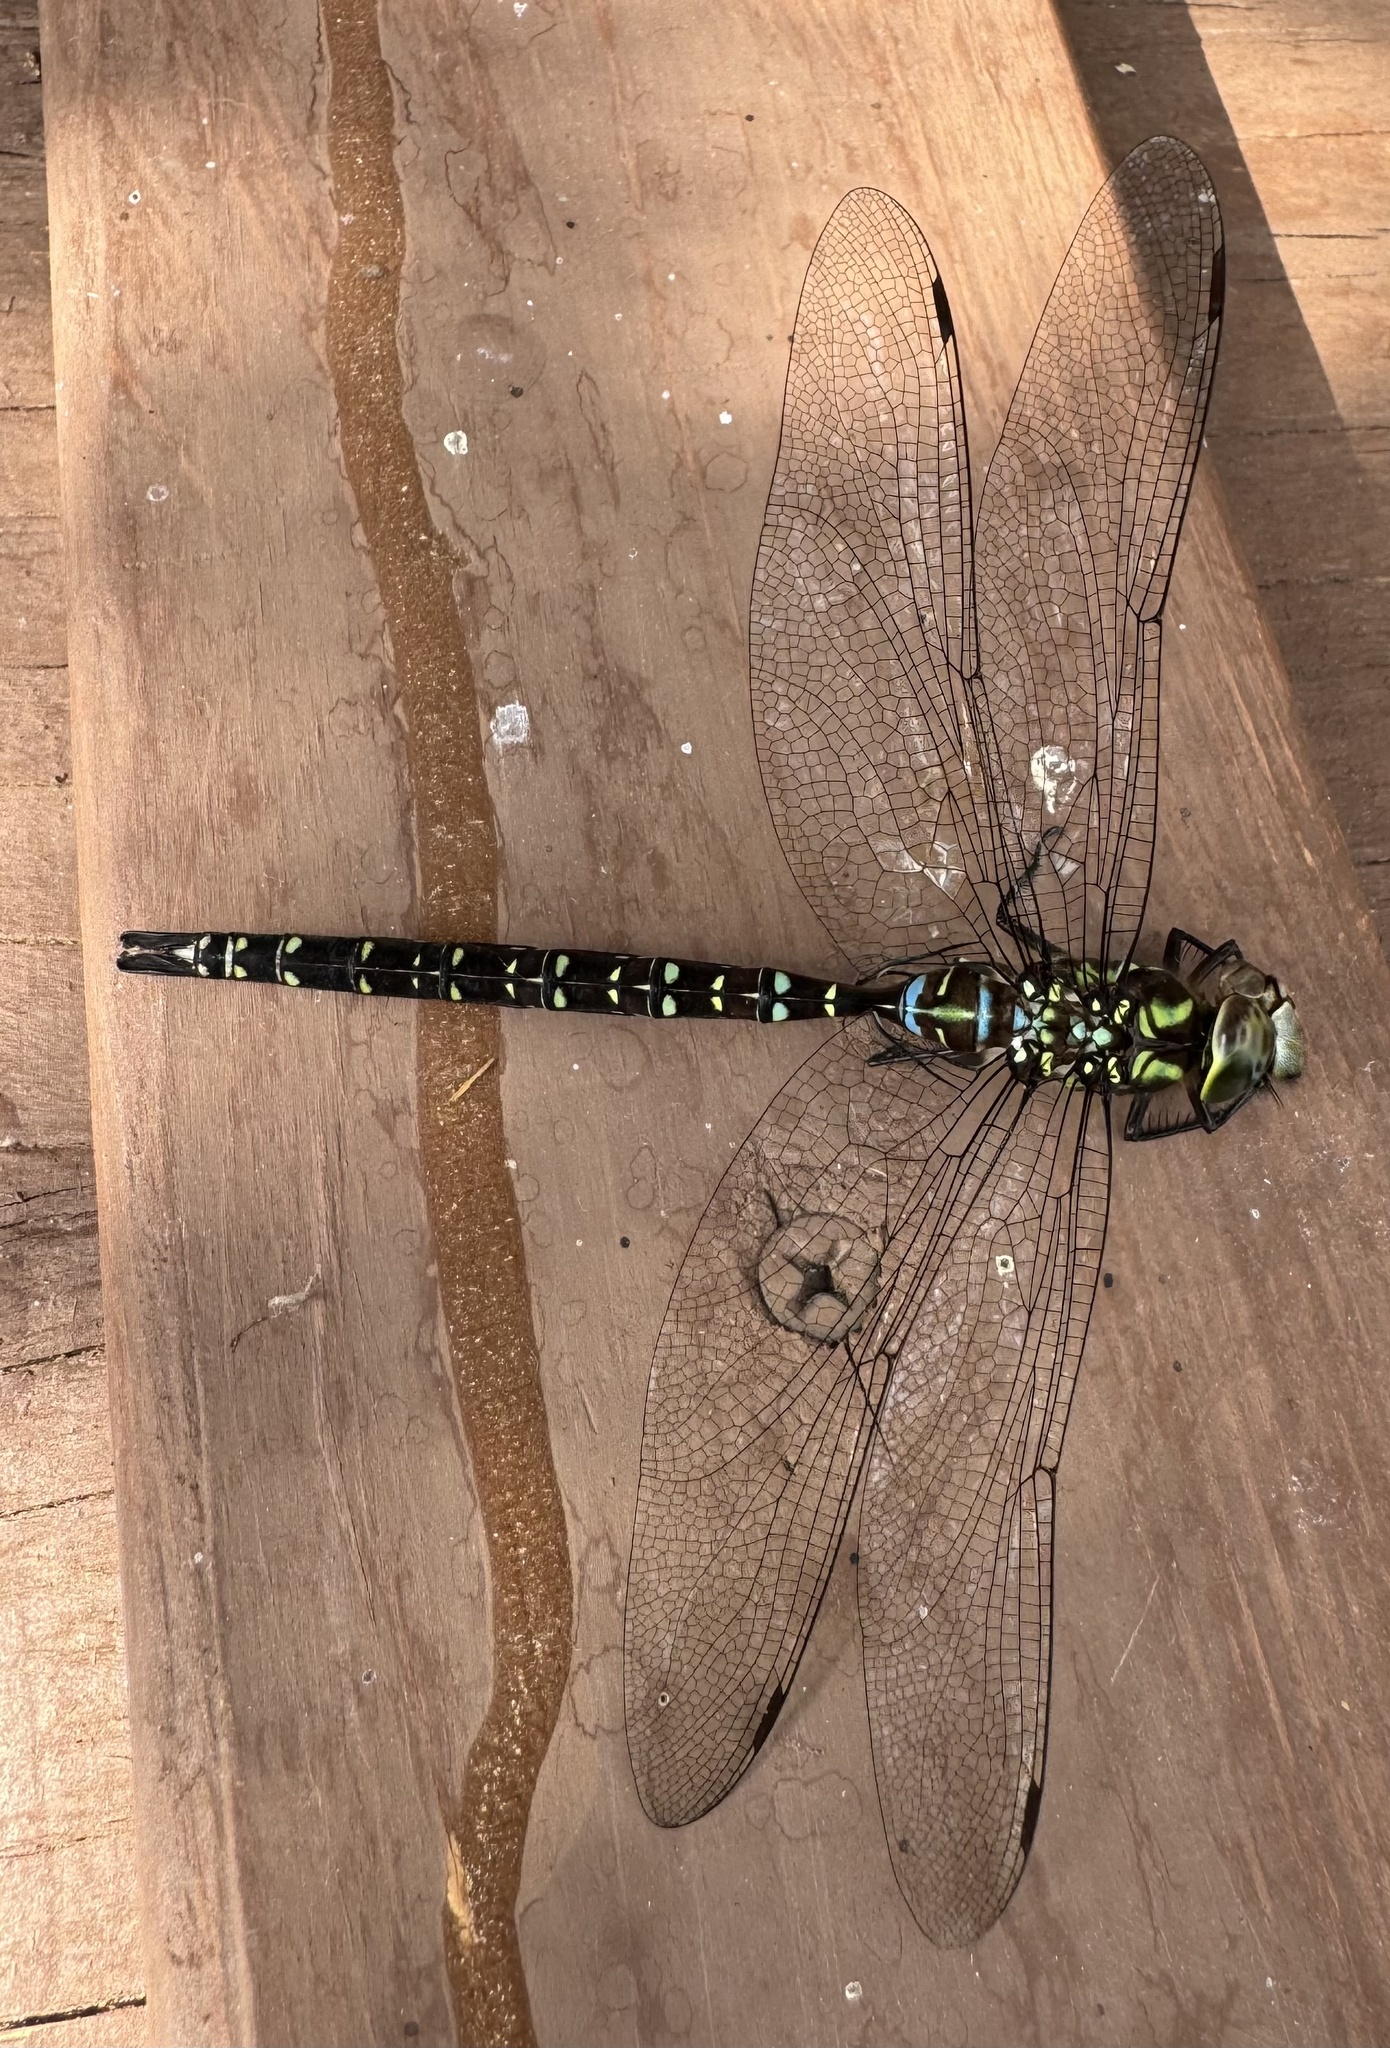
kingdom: Animalia
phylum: Arthropoda
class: Insecta
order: Odonata
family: Aeshnidae
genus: Aeshna
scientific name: Aeshna umbrosa
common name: Shadow darner
